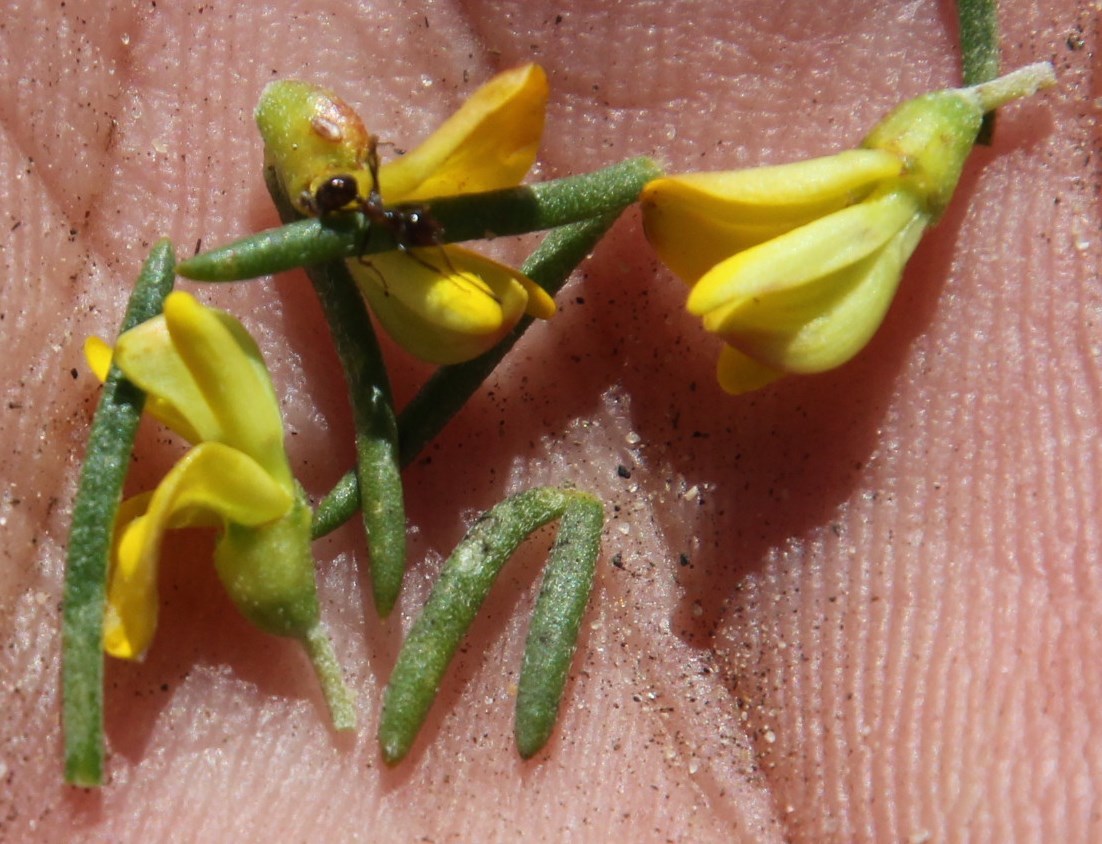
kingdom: Plantae
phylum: Tracheophyta
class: Magnoliopsida
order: Fabales
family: Fabaceae
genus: Aspalathus
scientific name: Aspalathus spinosa
